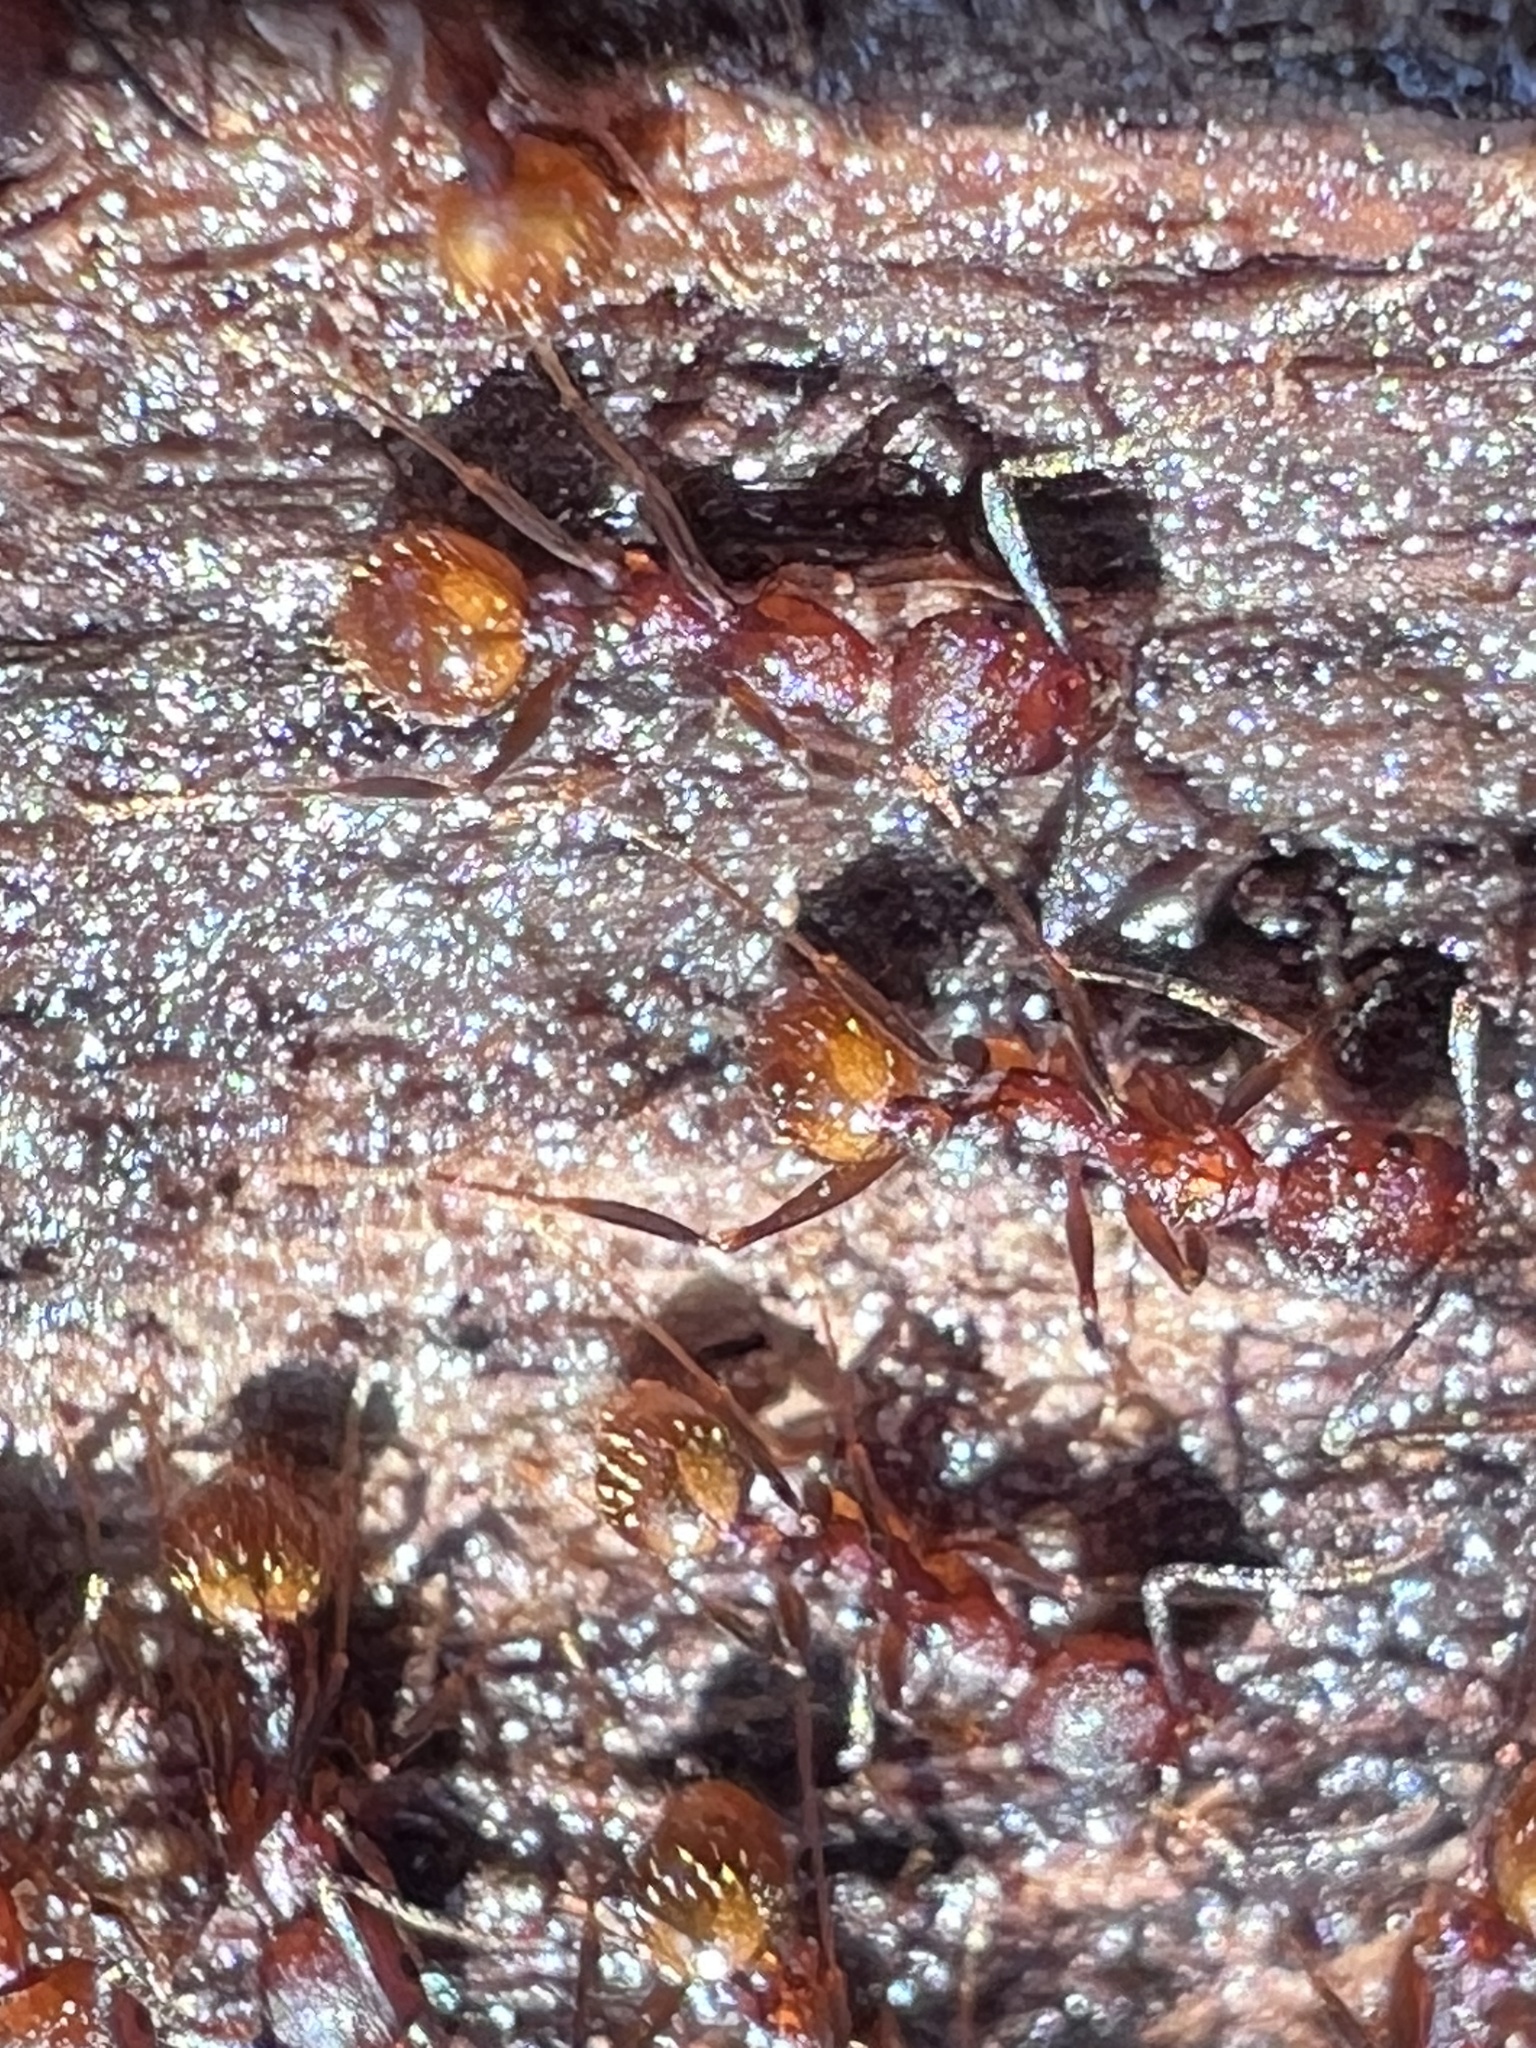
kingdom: Animalia
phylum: Arthropoda
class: Insecta
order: Hymenoptera
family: Formicidae
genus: Aphaenogaster
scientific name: Aphaenogaster fulva
